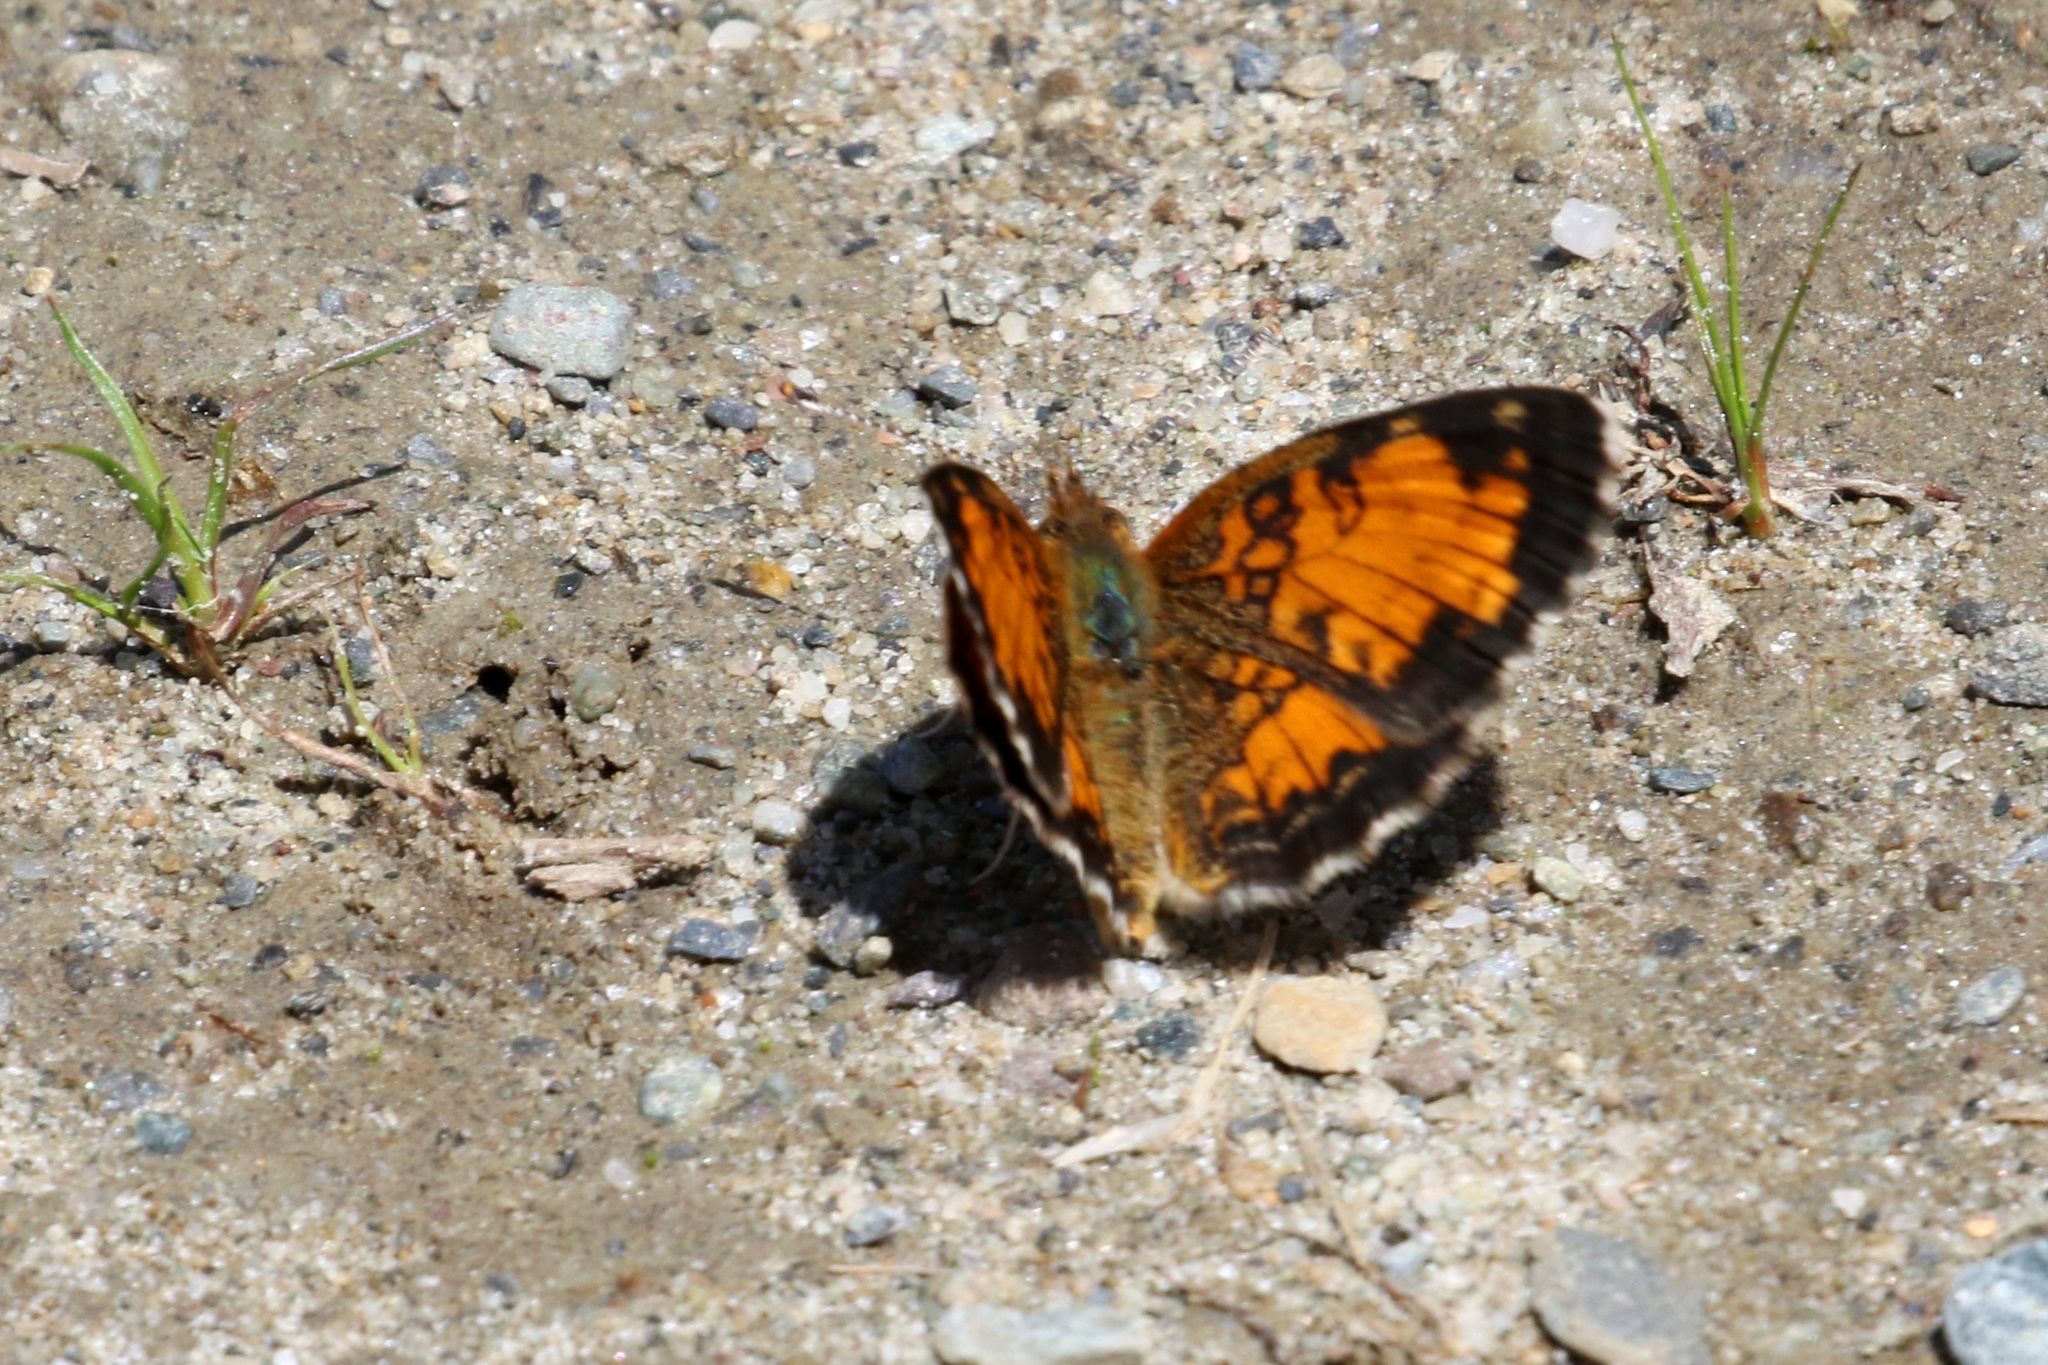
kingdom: Animalia
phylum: Arthropoda
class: Insecta
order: Lepidoptera
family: Nymphalidae
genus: Phyciodes
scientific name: Phyciodes tharos
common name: Pearl crescent
